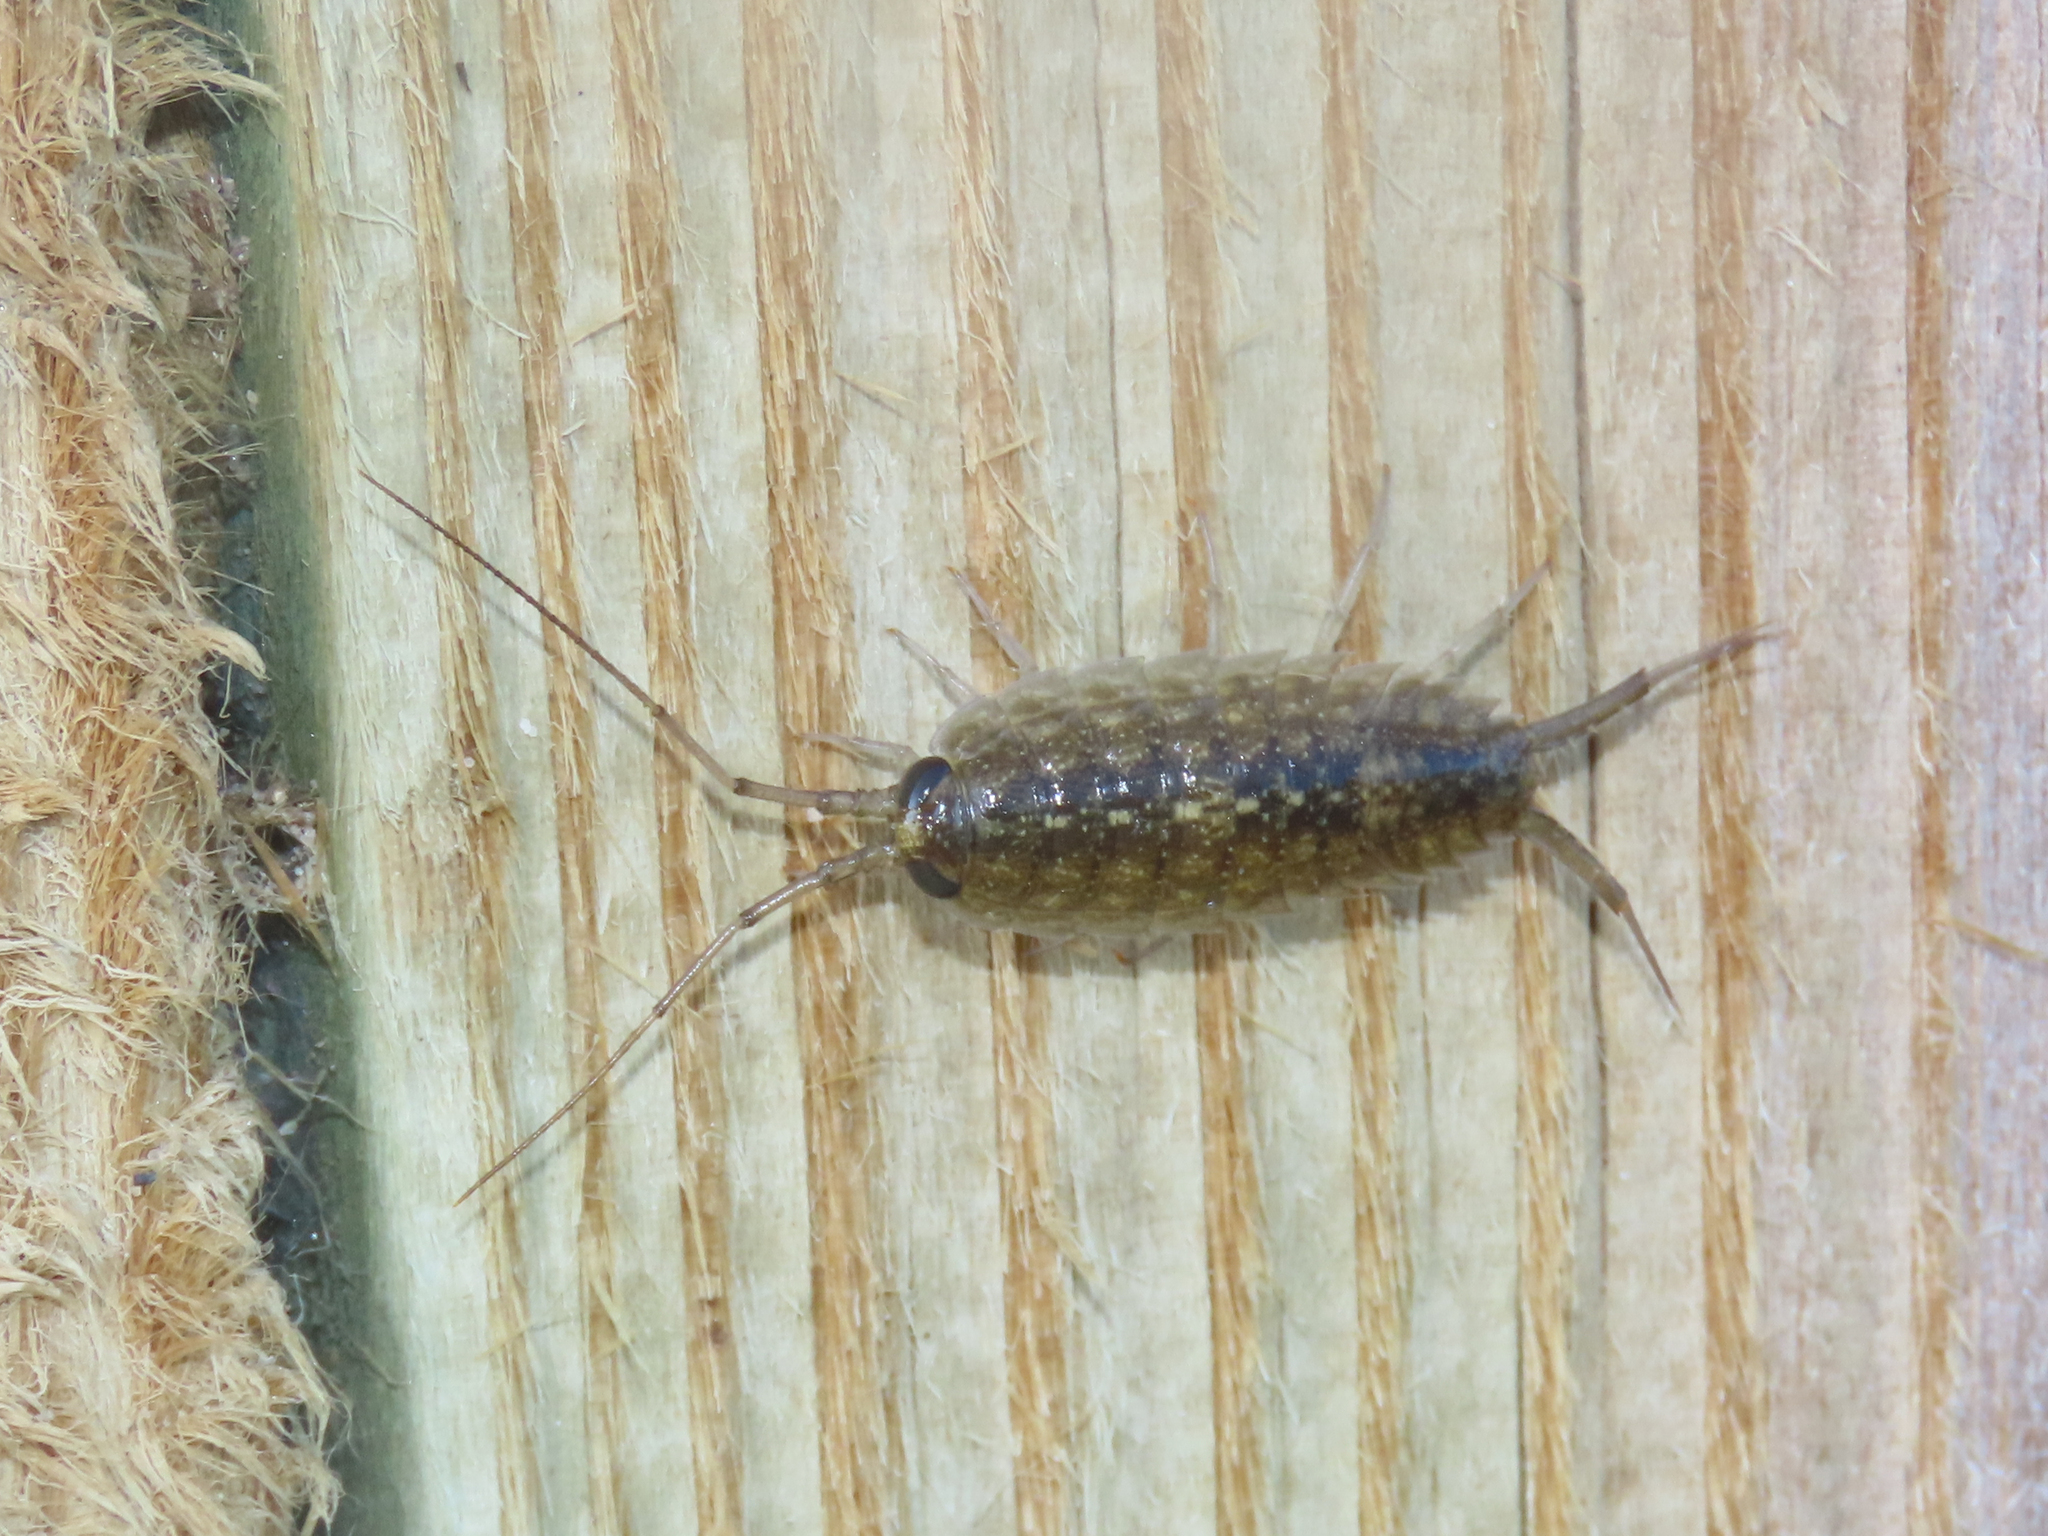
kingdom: Animalia
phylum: Arthropoda
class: Malacostraca
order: Isopoda
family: Ligiidae
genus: Ligia
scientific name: Ligia exotica
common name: Wharf roach
